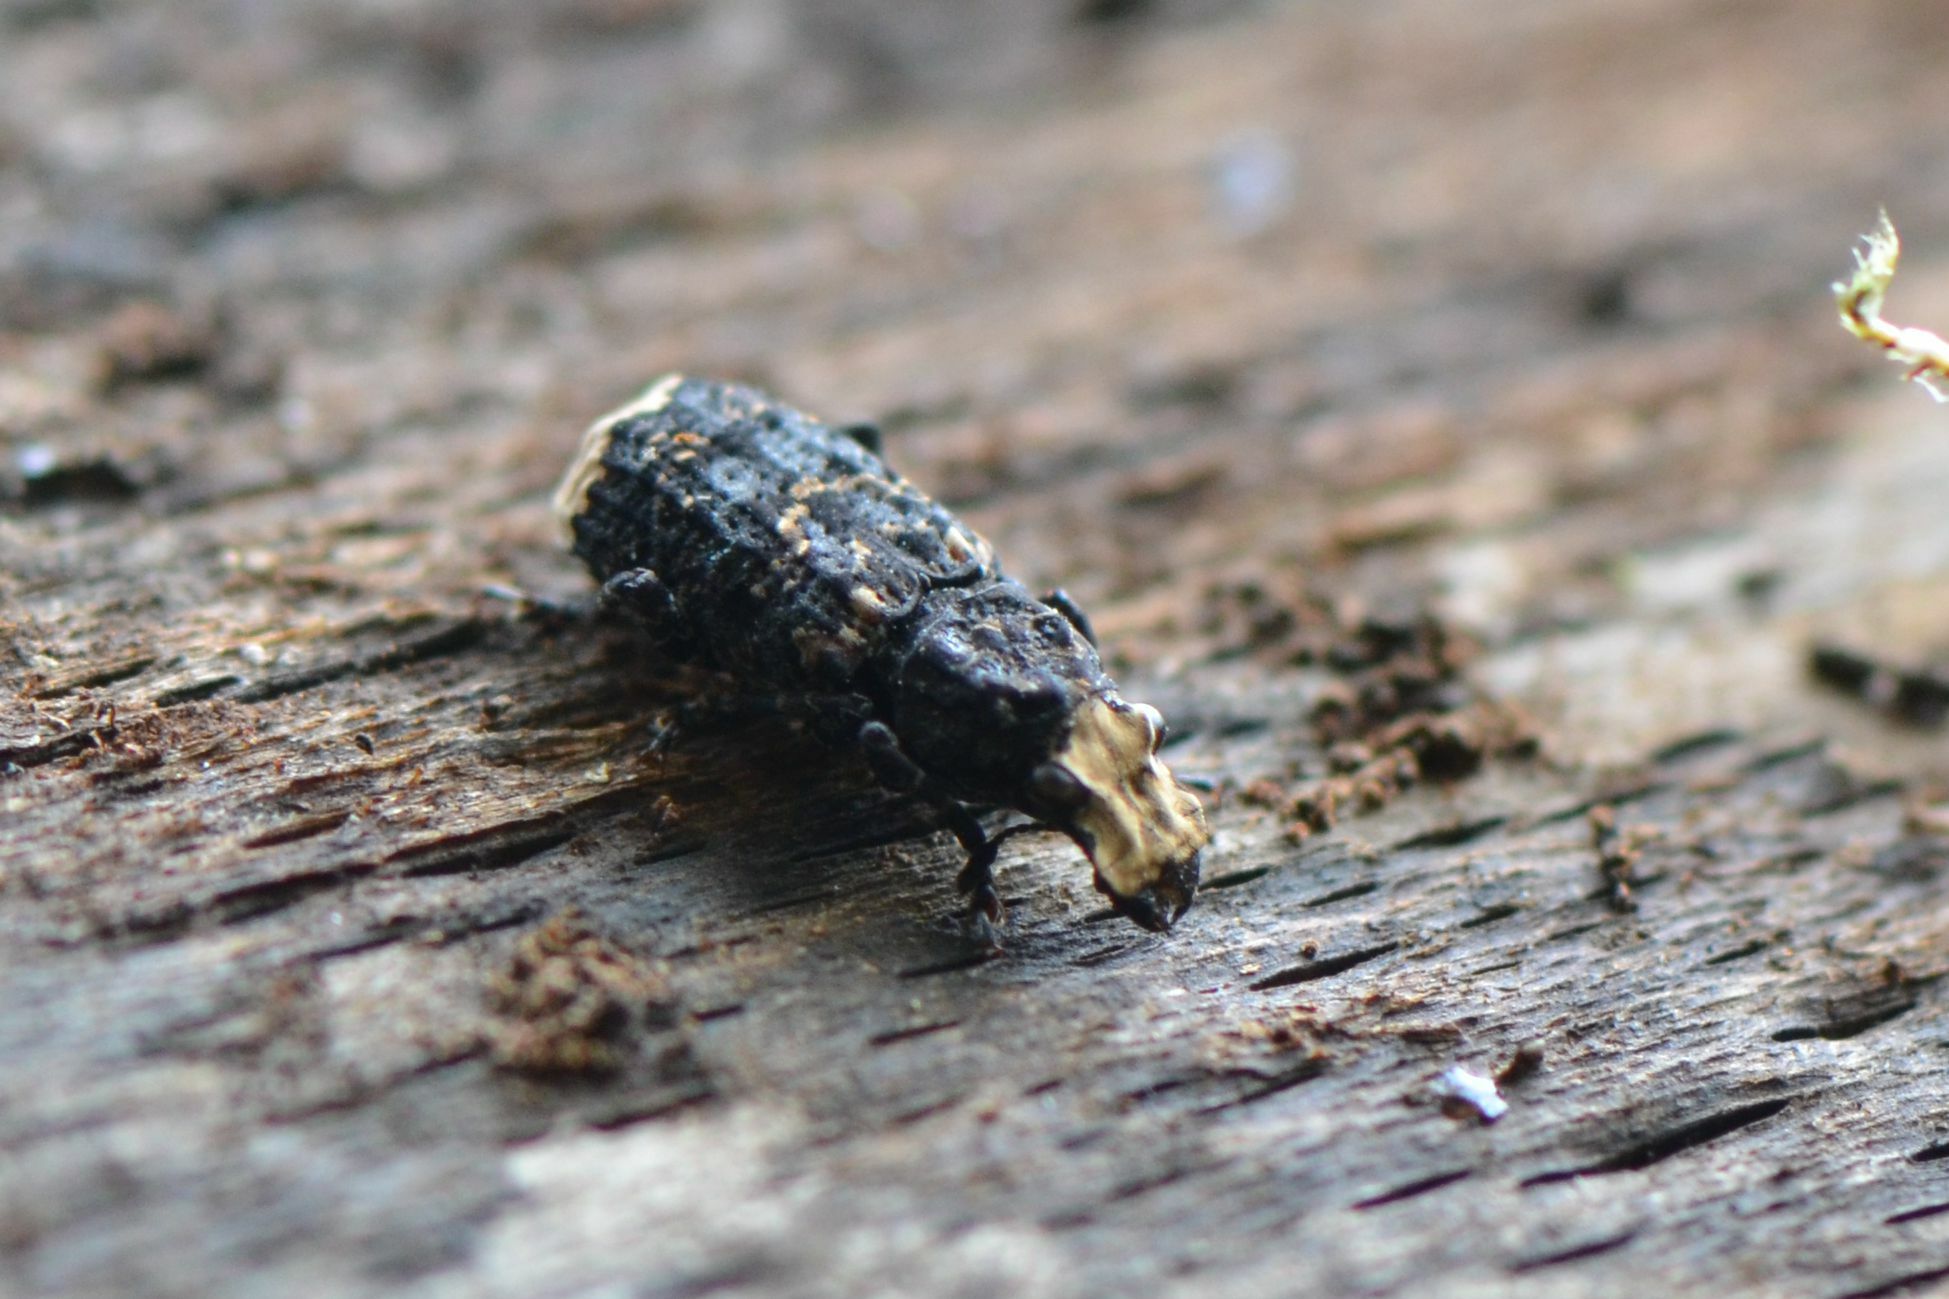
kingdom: Animalia
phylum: Arthropoda
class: Insecta
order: Coleoptera
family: Anthribidae
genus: Platyrhinus
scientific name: Platyrhinus resinosus
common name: Cramp-ball fungus weevil
